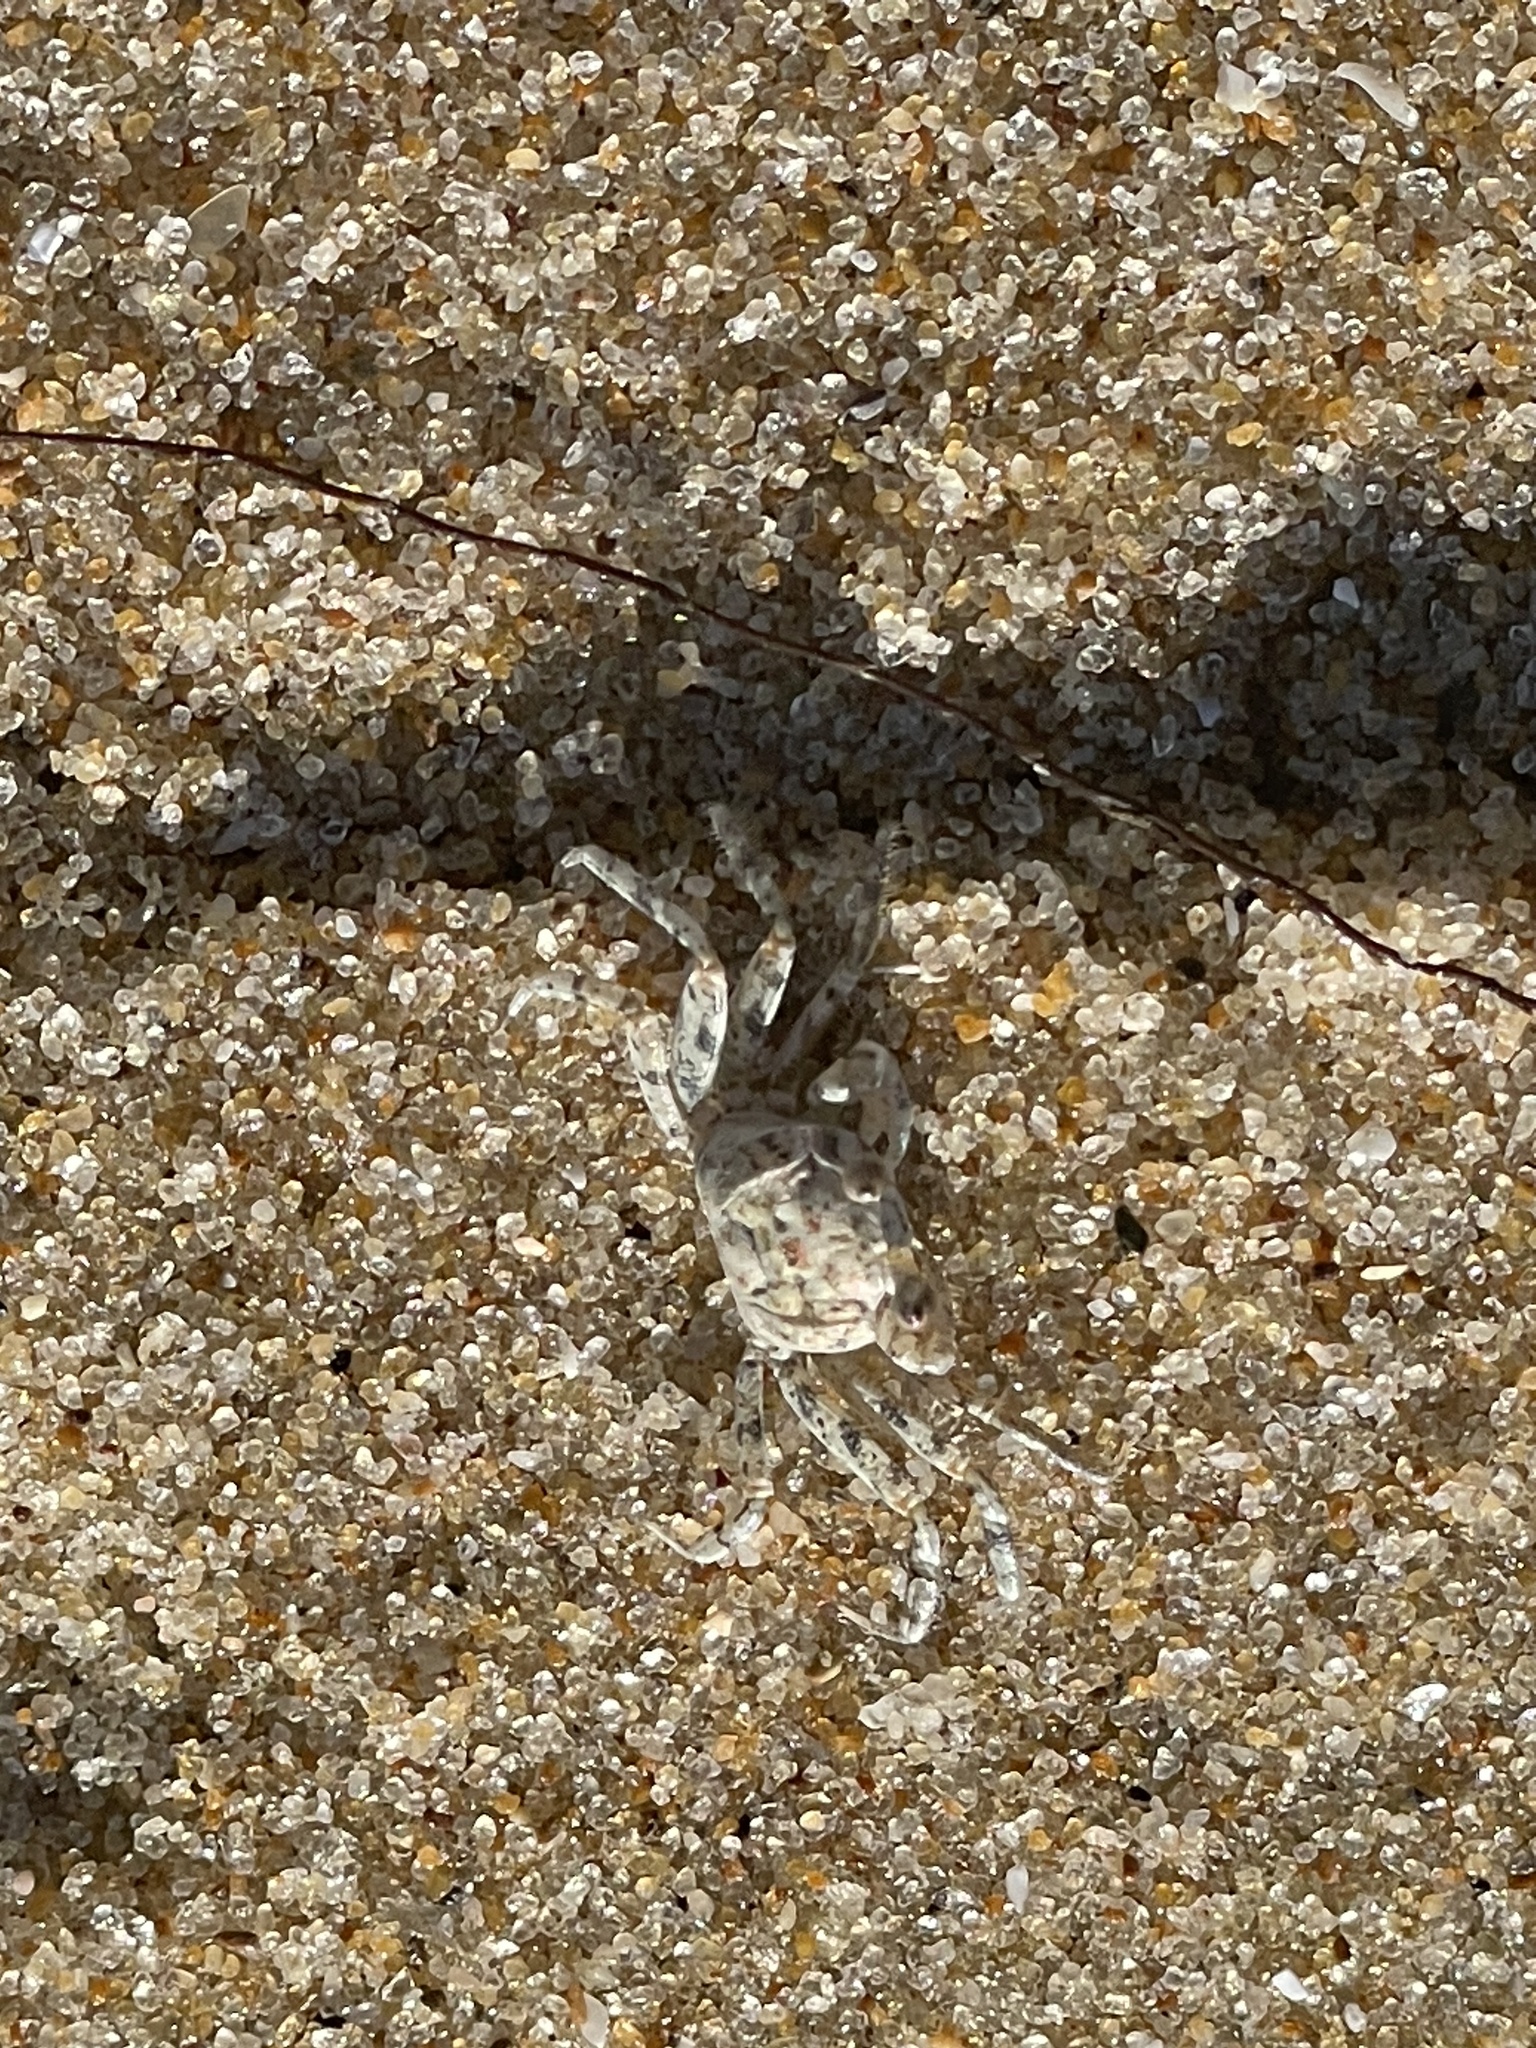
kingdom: Animalia
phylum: Arthropoda
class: Malacostraca
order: Decapoda
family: Ocypodidae
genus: Ocypode
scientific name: Ocypode quadrata
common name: Ghost crab
